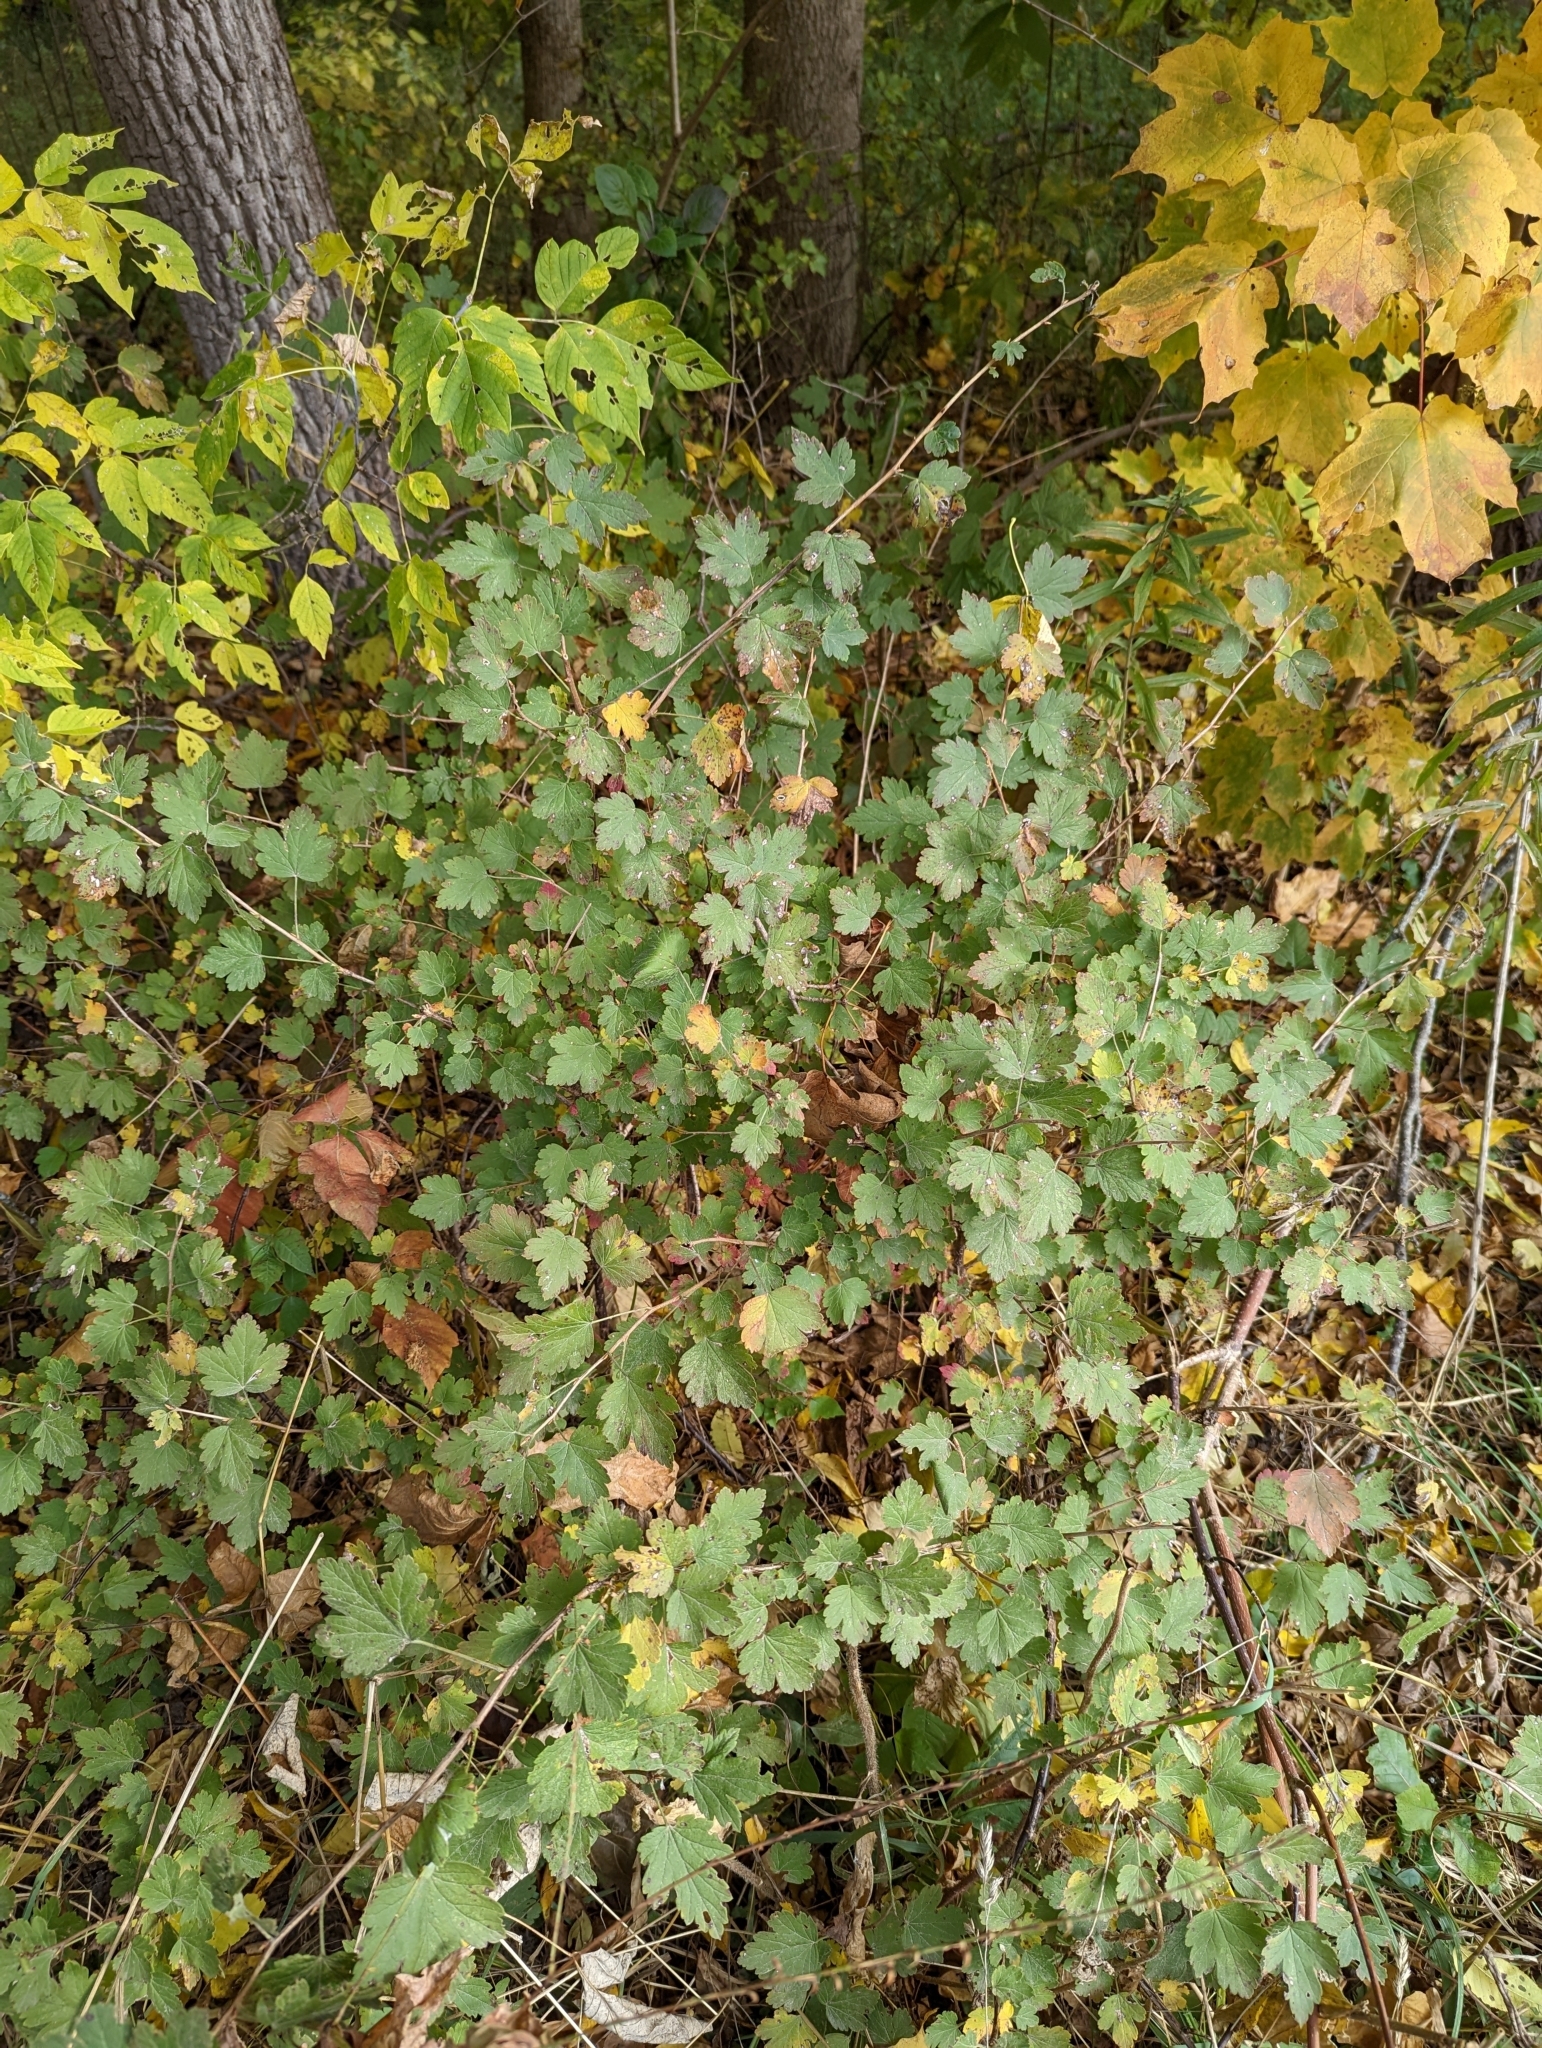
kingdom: Plantae
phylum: Tracheophyta
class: Magnoliopsida
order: Saxifragales
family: Grossulariaceae
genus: Ribes
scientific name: Ribes cynosbati
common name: American gooseberry
